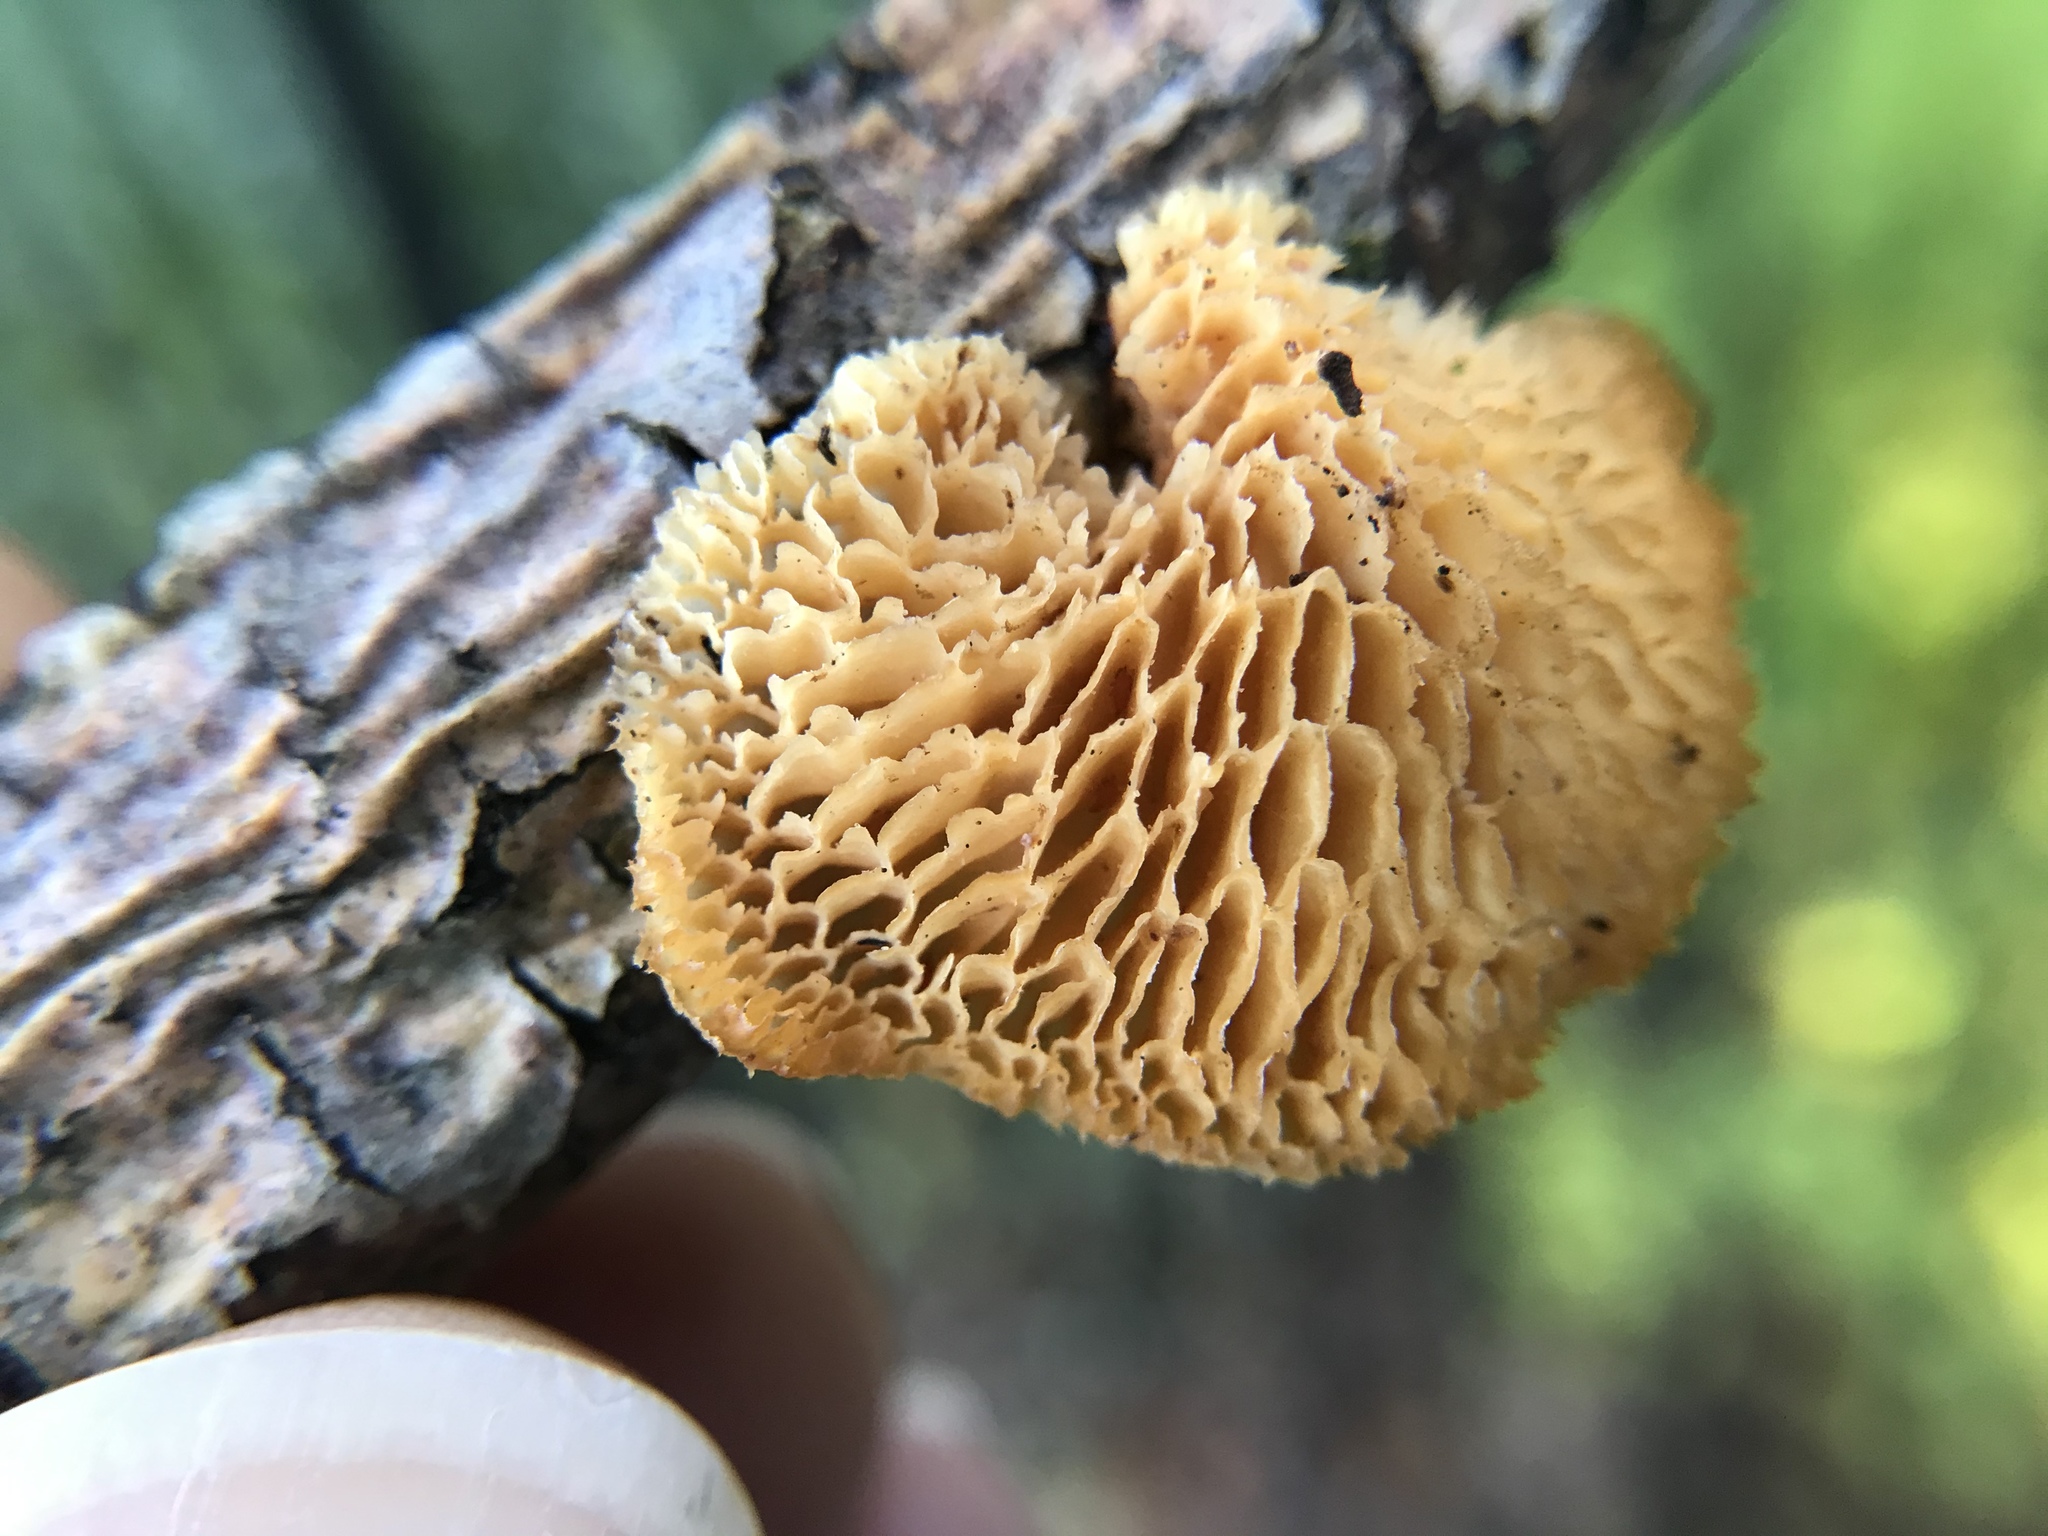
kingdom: Fungi
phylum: Basidiomycota
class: Agaricomycetes
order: Polyporales
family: Polyporaceae
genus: Neofavolus
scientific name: Neofavolus alveolaris
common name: Hexagonal-pored polypore
